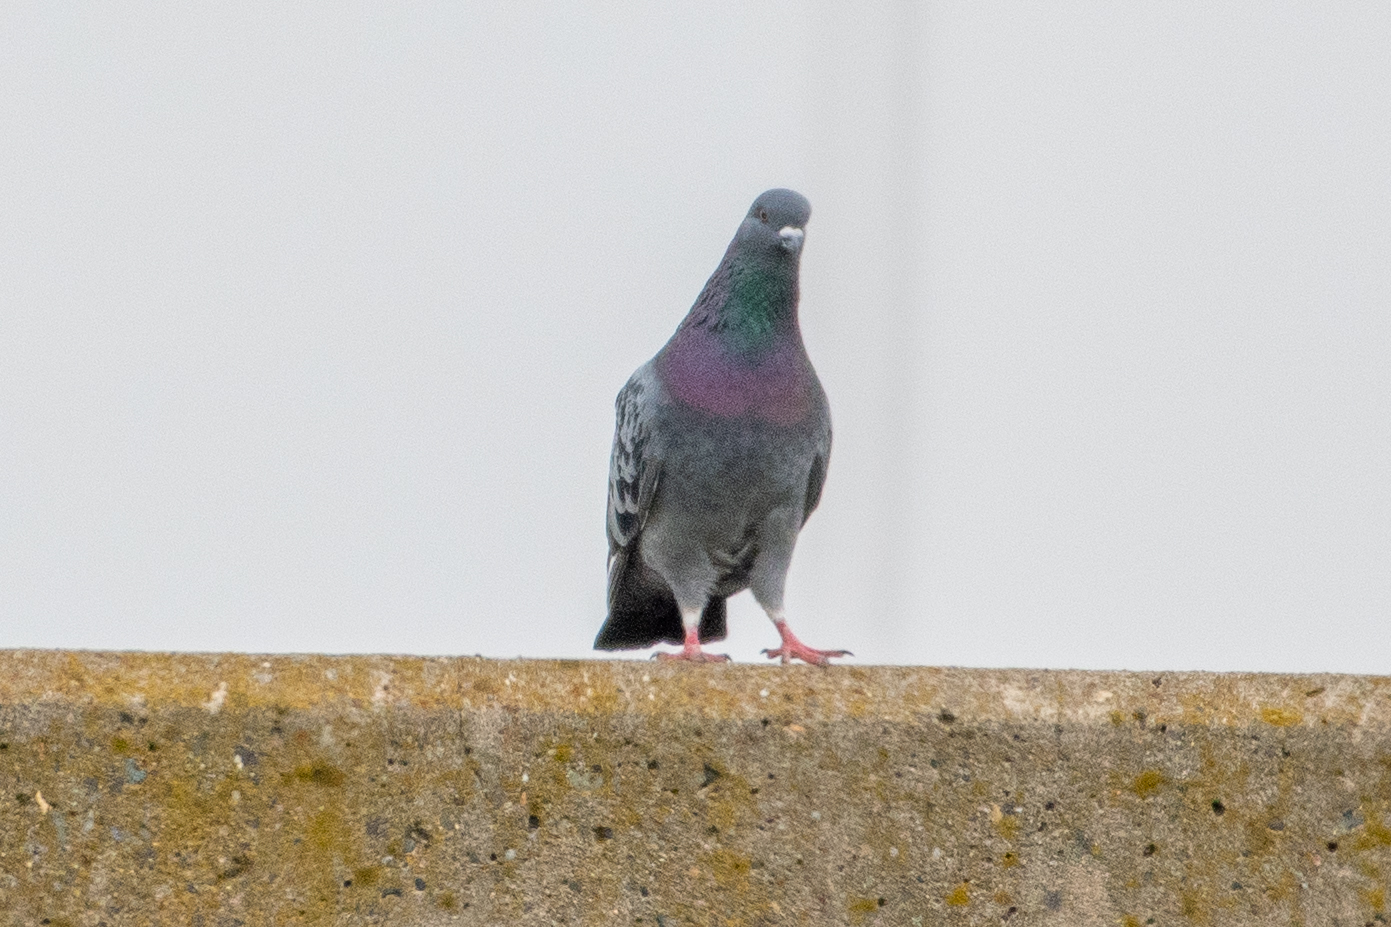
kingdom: Animalia
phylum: Chordata
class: Aves
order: Columbiformes
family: Columbidae
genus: Columba
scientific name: Columba livia
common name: Rock pigeon
